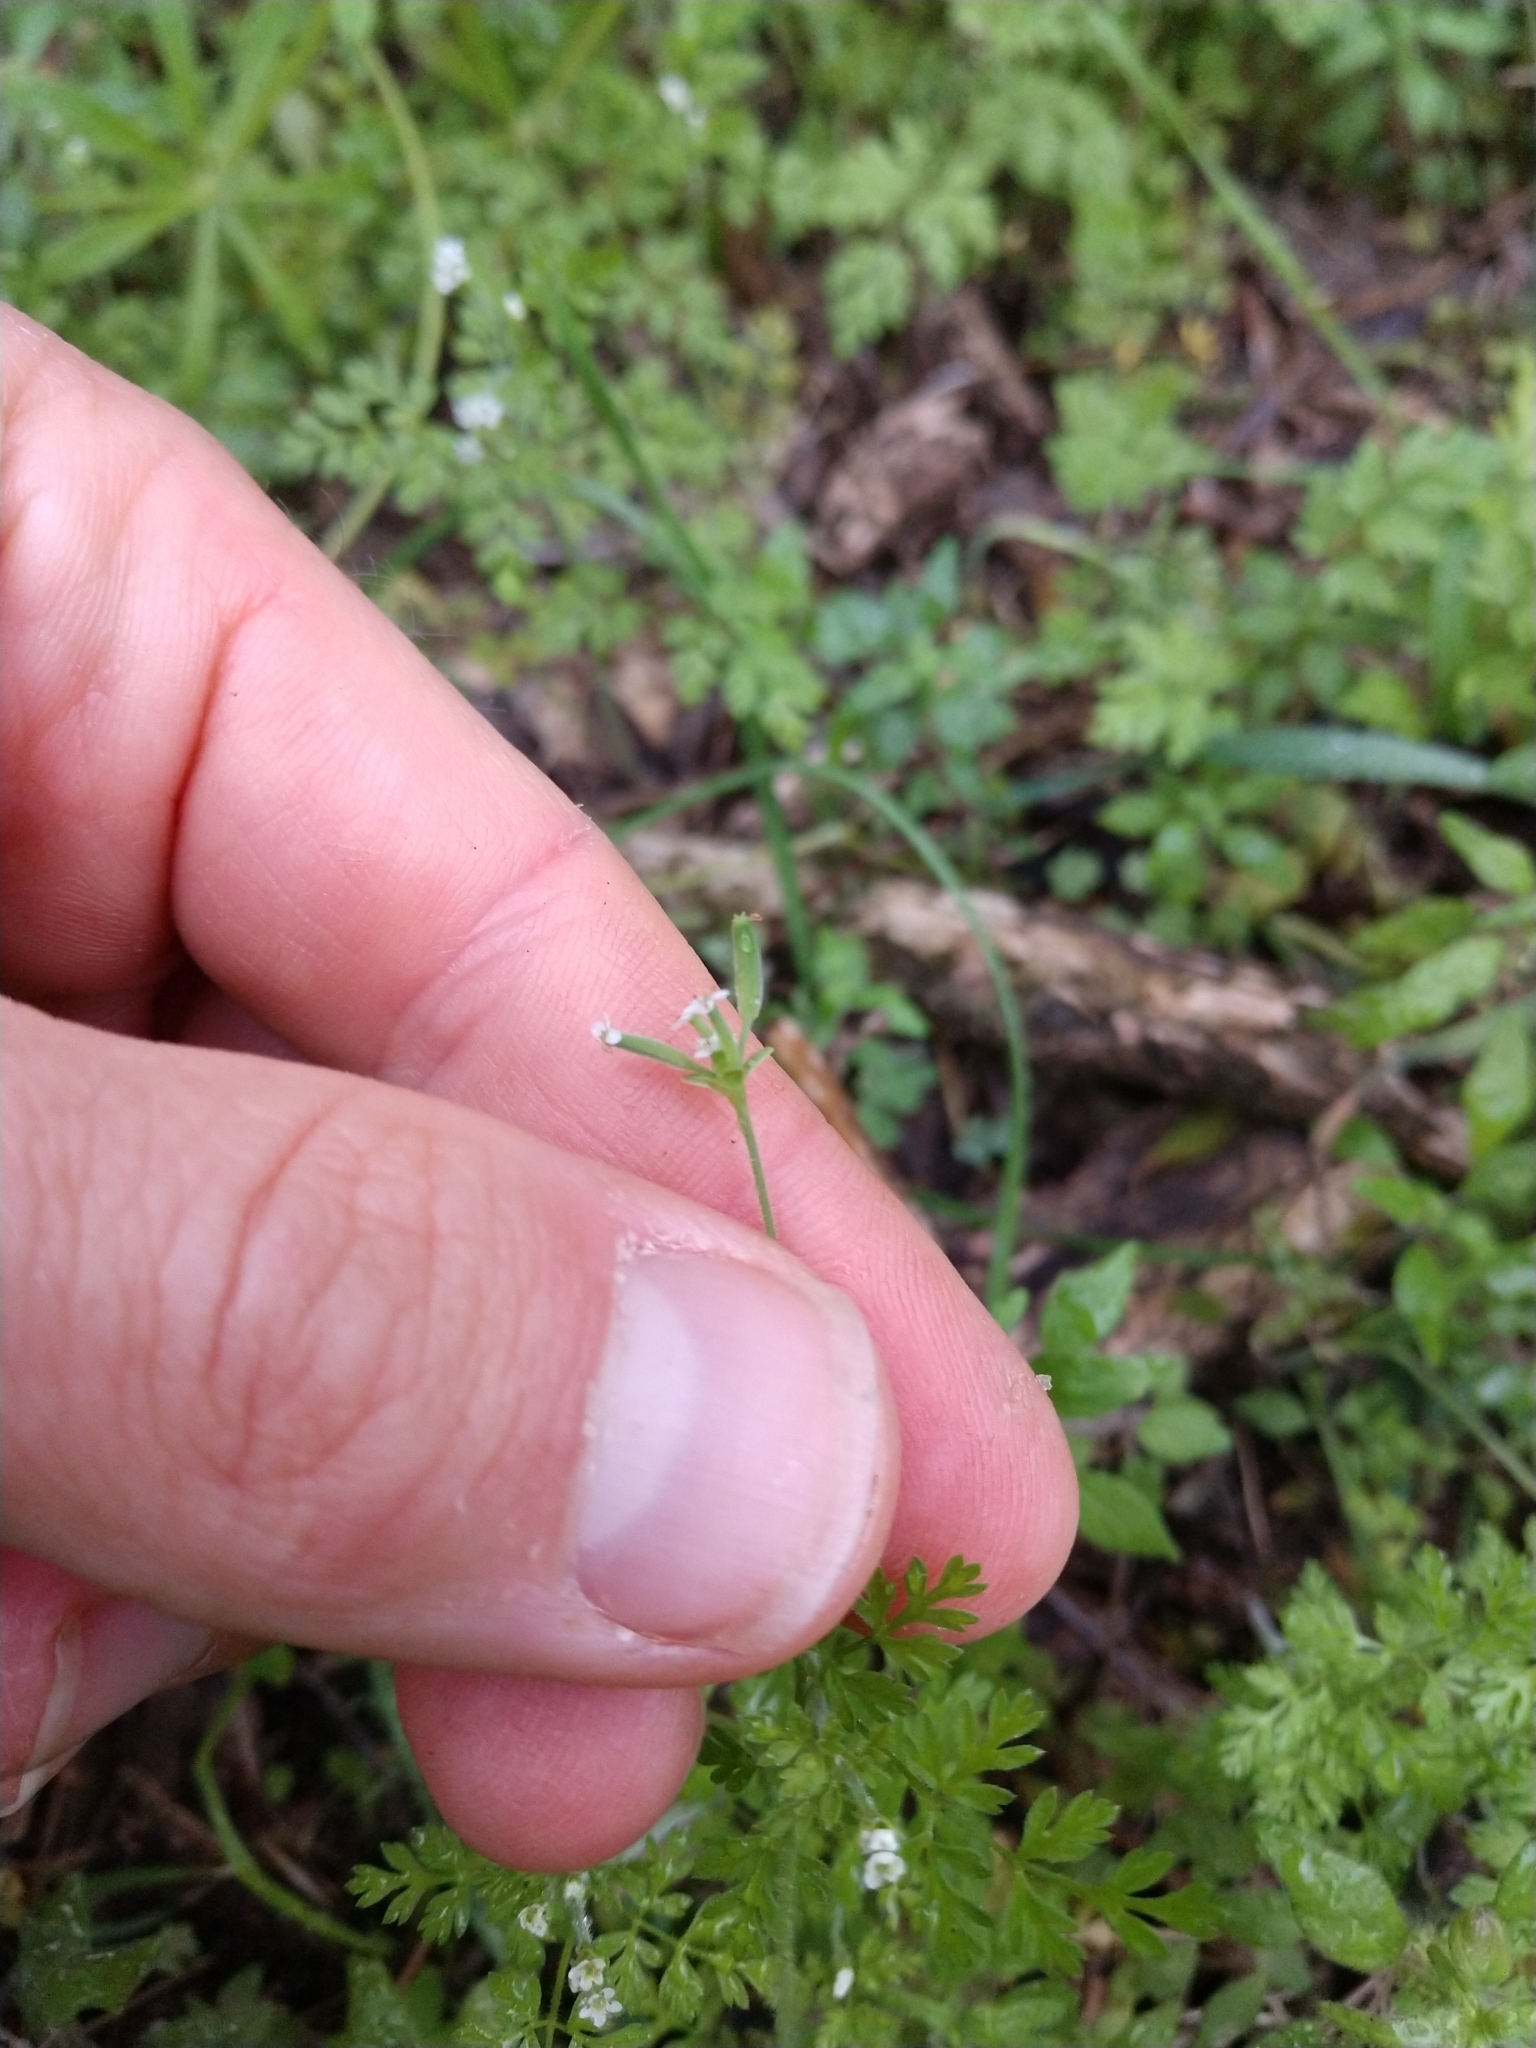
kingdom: Plantae
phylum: Tracheophyta
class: Magnoliopsida
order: Apiales
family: Apiaceae
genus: Chaerophyllum
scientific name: Chaerophyllum tainturieri
